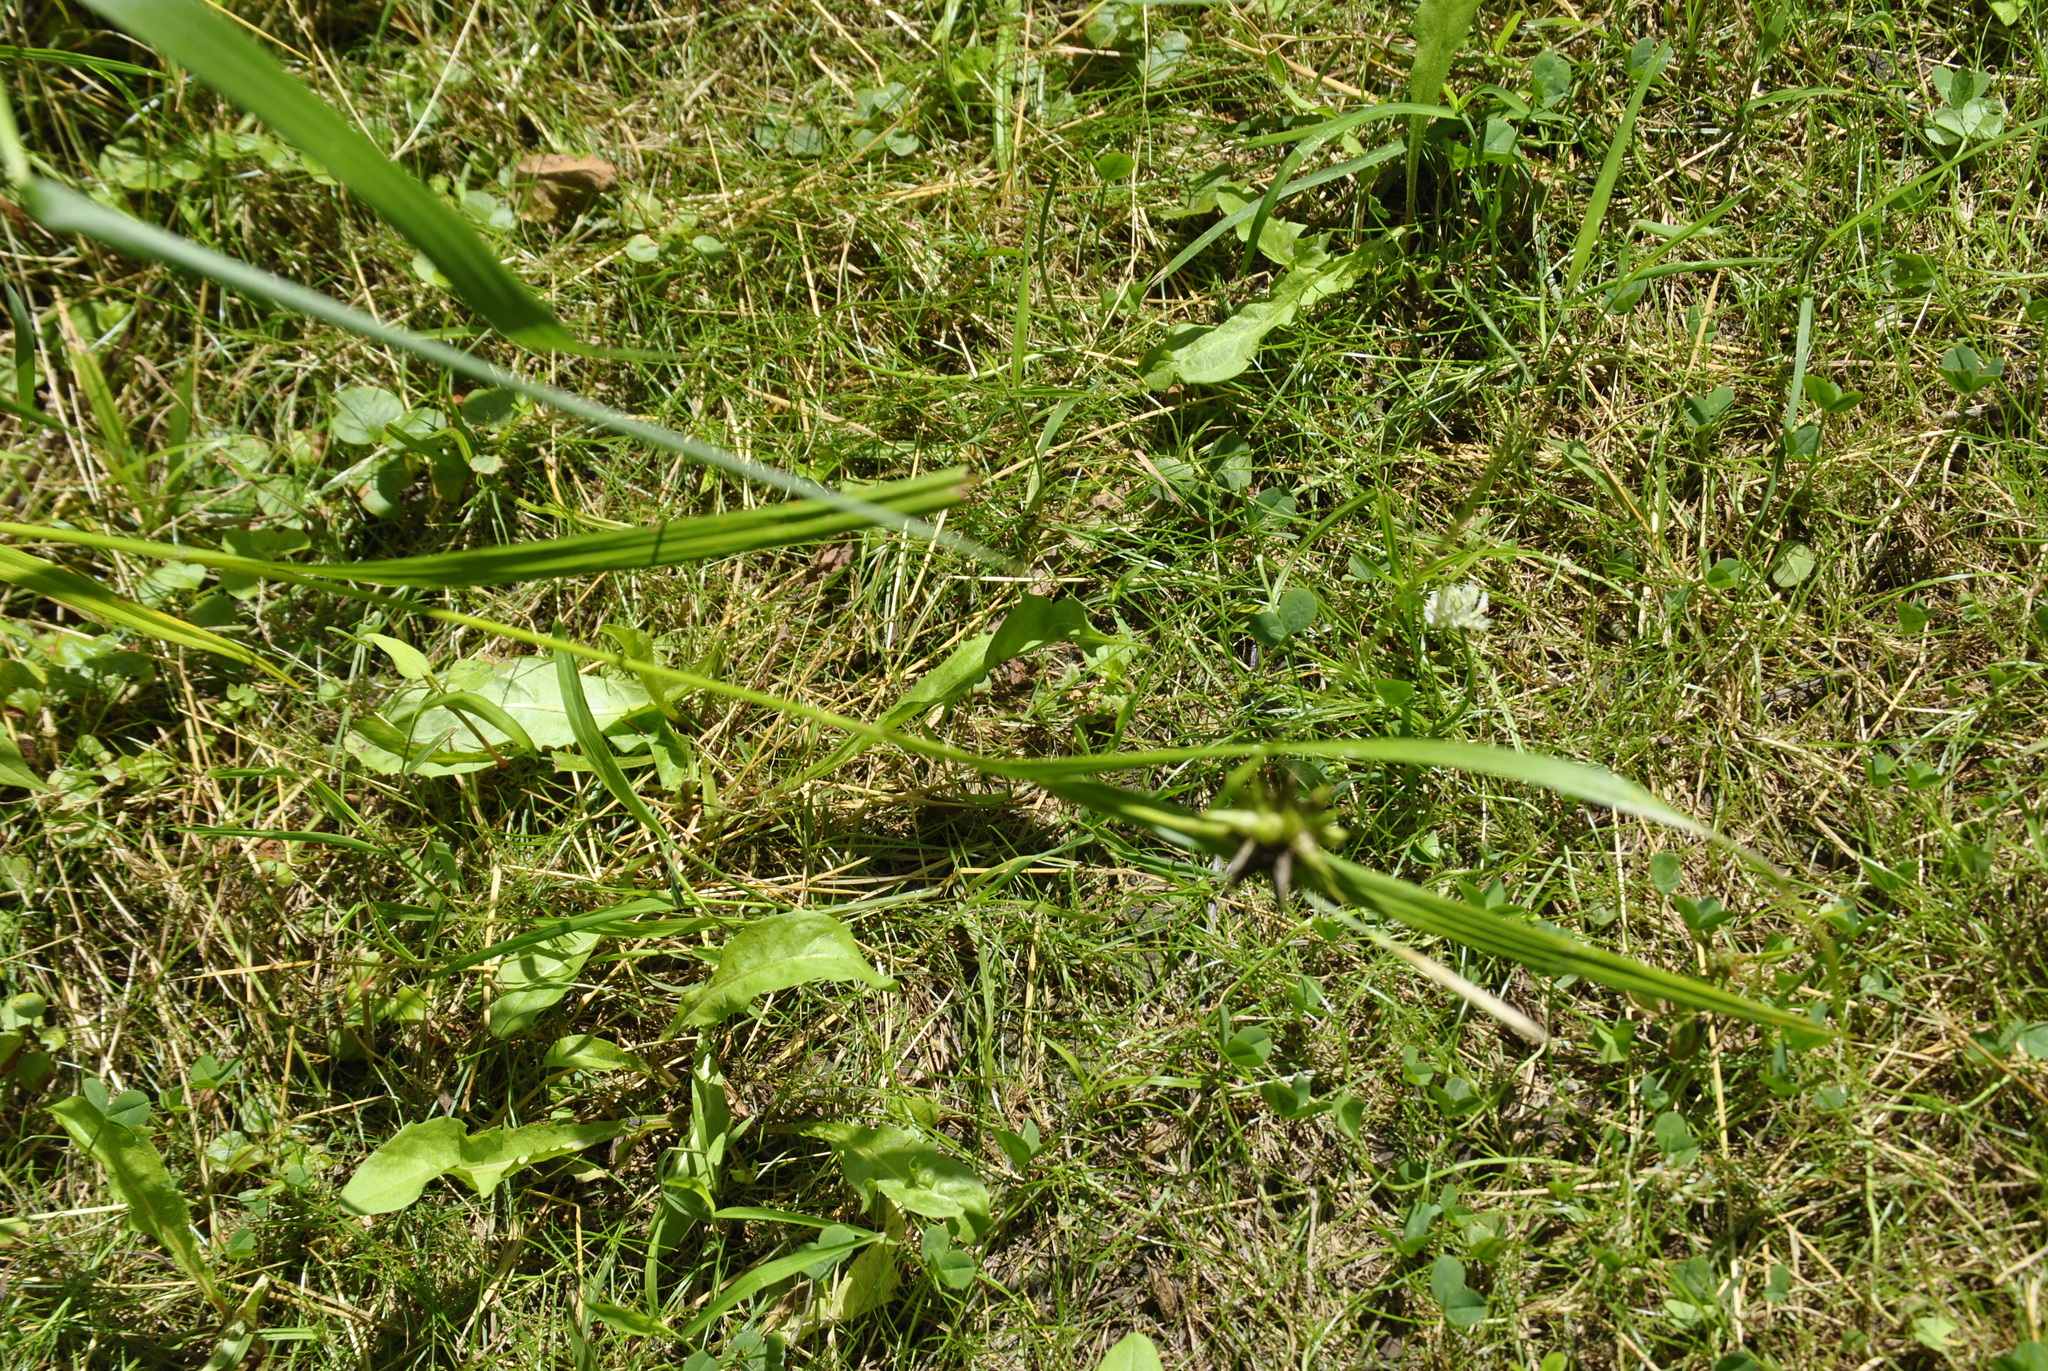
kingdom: Plantae
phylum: Tracheophyta
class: Liliopsida
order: Poales
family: Cyperaceae
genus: Carex
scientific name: Carex grayi
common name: Asa gray's sedge
